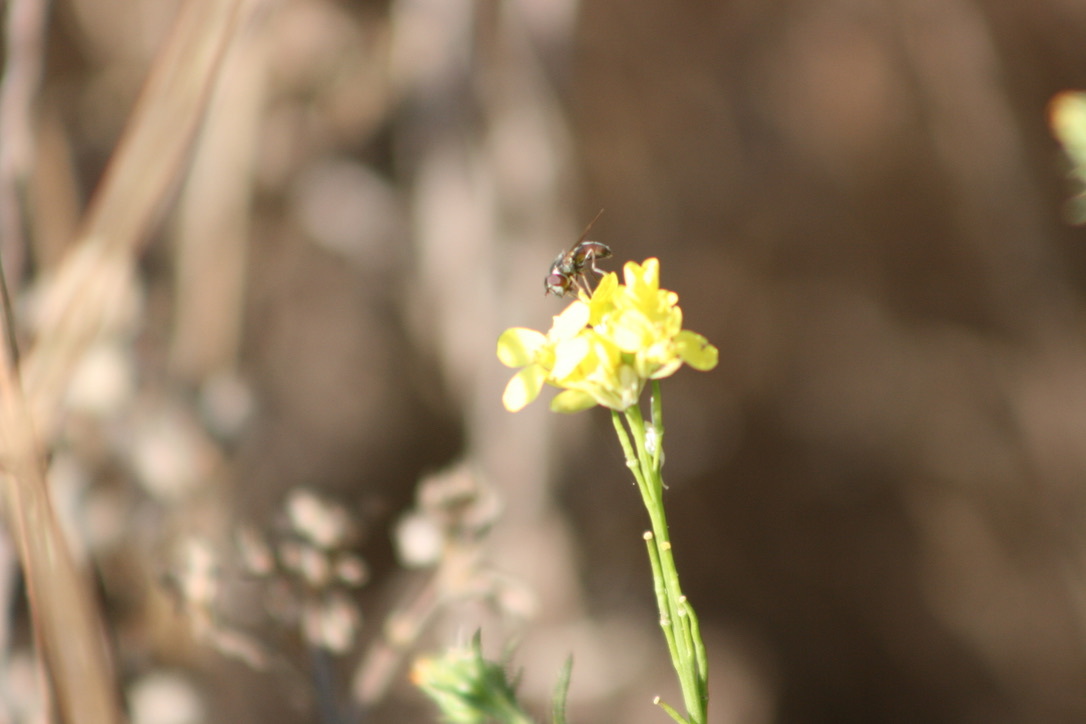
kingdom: Animalia
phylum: Arthropoda
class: Insecta
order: Diptera
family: Syrphidae
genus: Paragus
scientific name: Paragus haemorrhous
